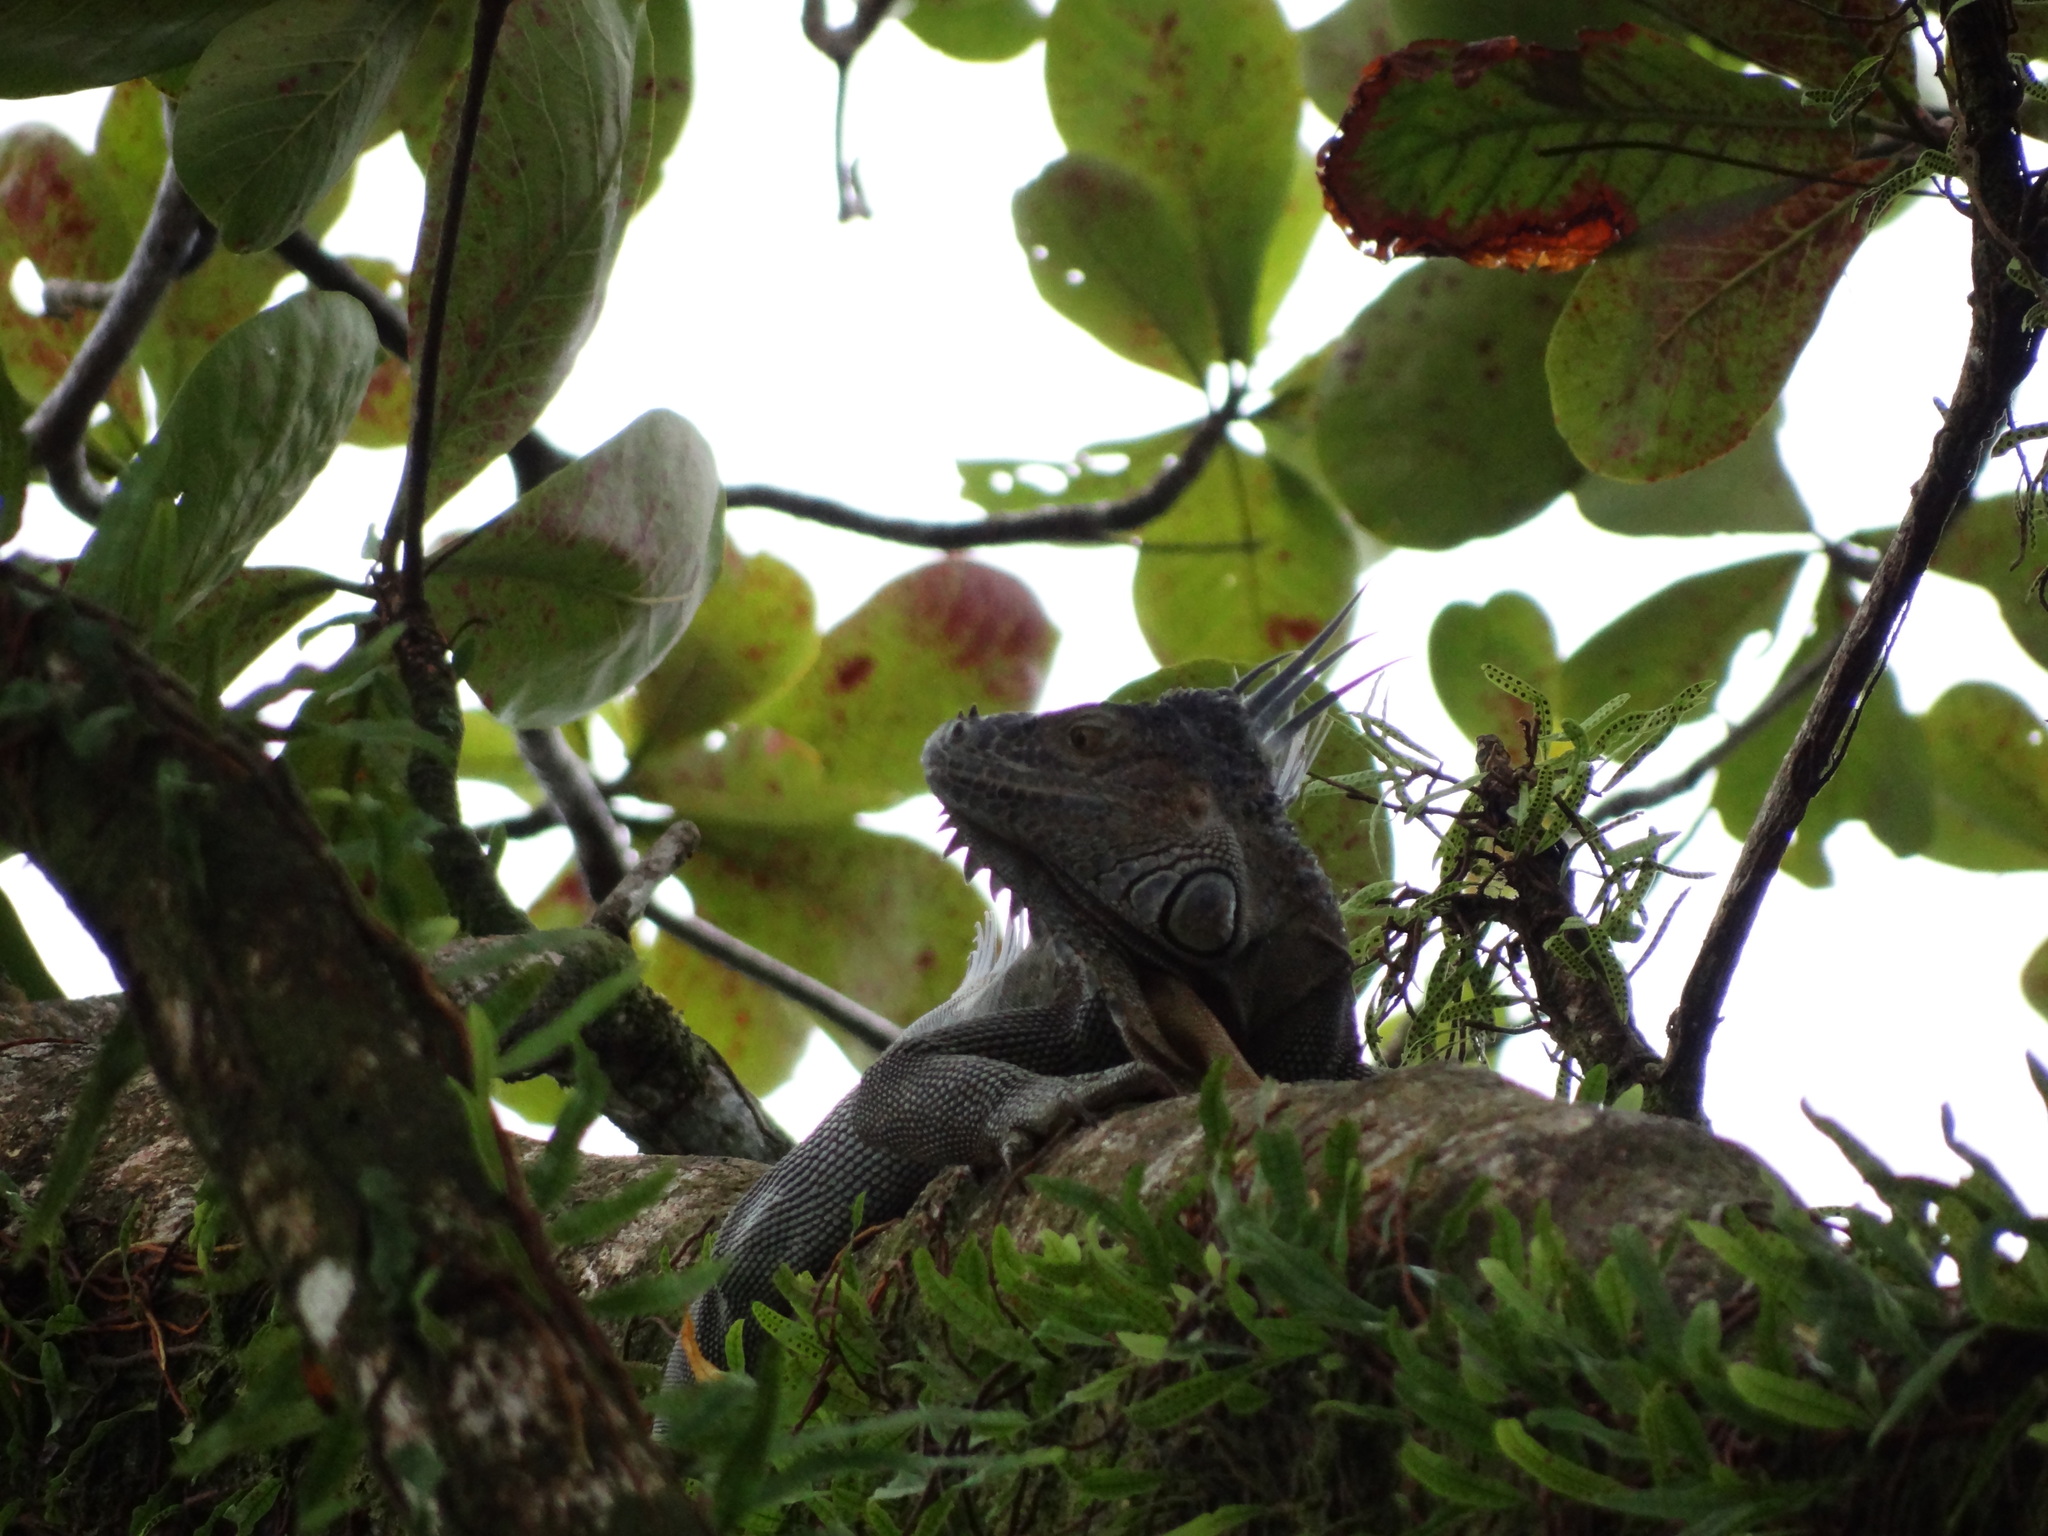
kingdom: Animalia
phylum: Chordata
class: Squamata
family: Iguanidae
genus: Iguana
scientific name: Iguana iguana
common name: Green iguana
